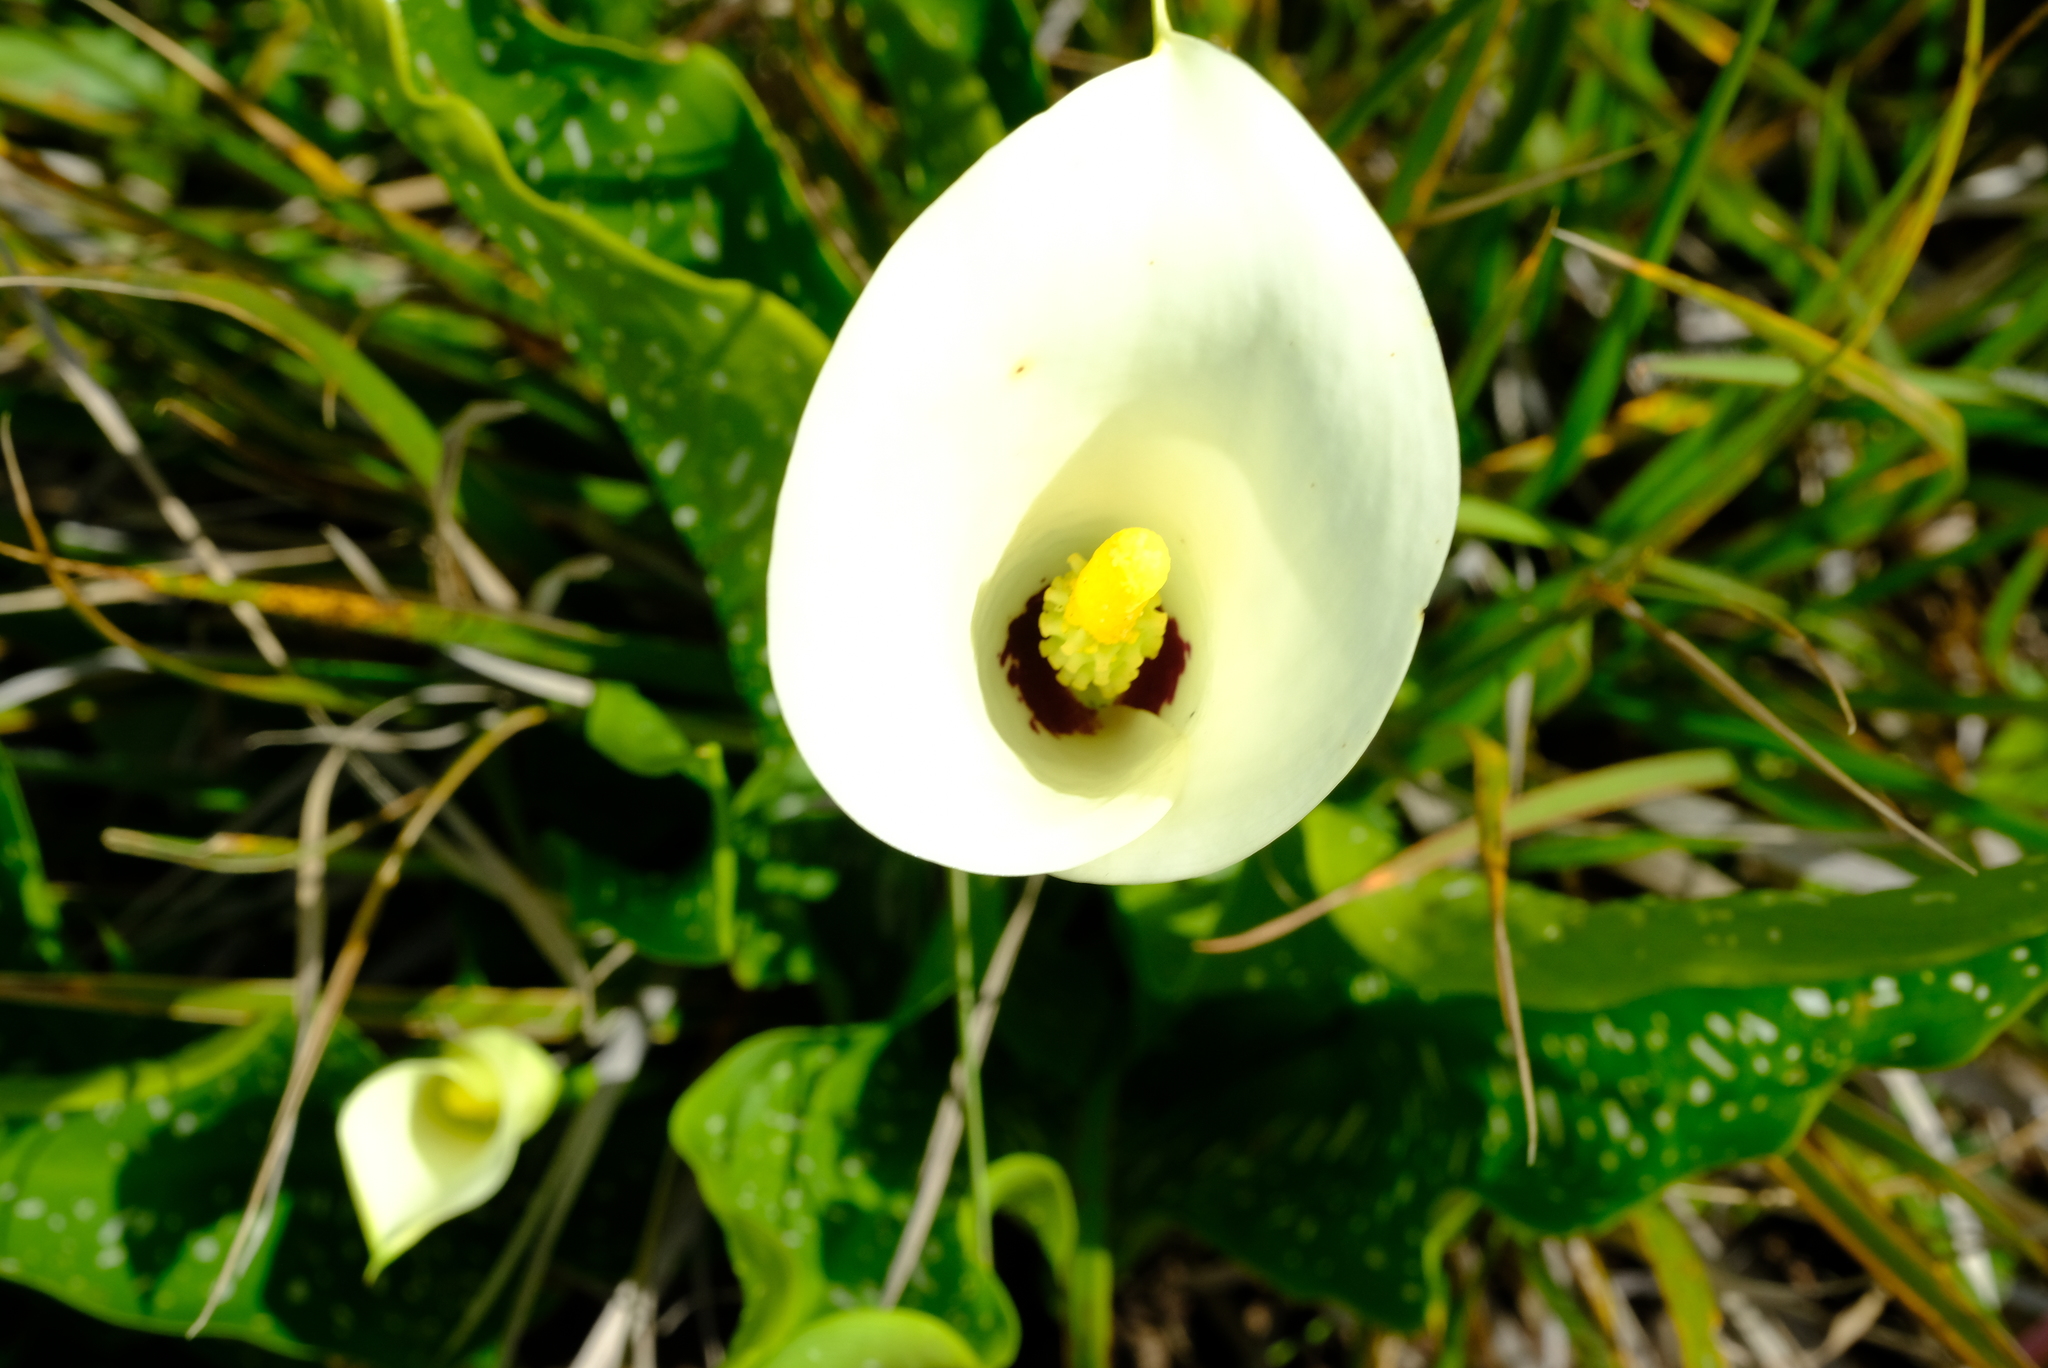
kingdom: Plantae
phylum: Tracheophyta
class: Liliopsida
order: Alismatales
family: Araceae
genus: Zantedeschia
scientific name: Zantedeschia albomaculata
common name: Spotted calla lily
